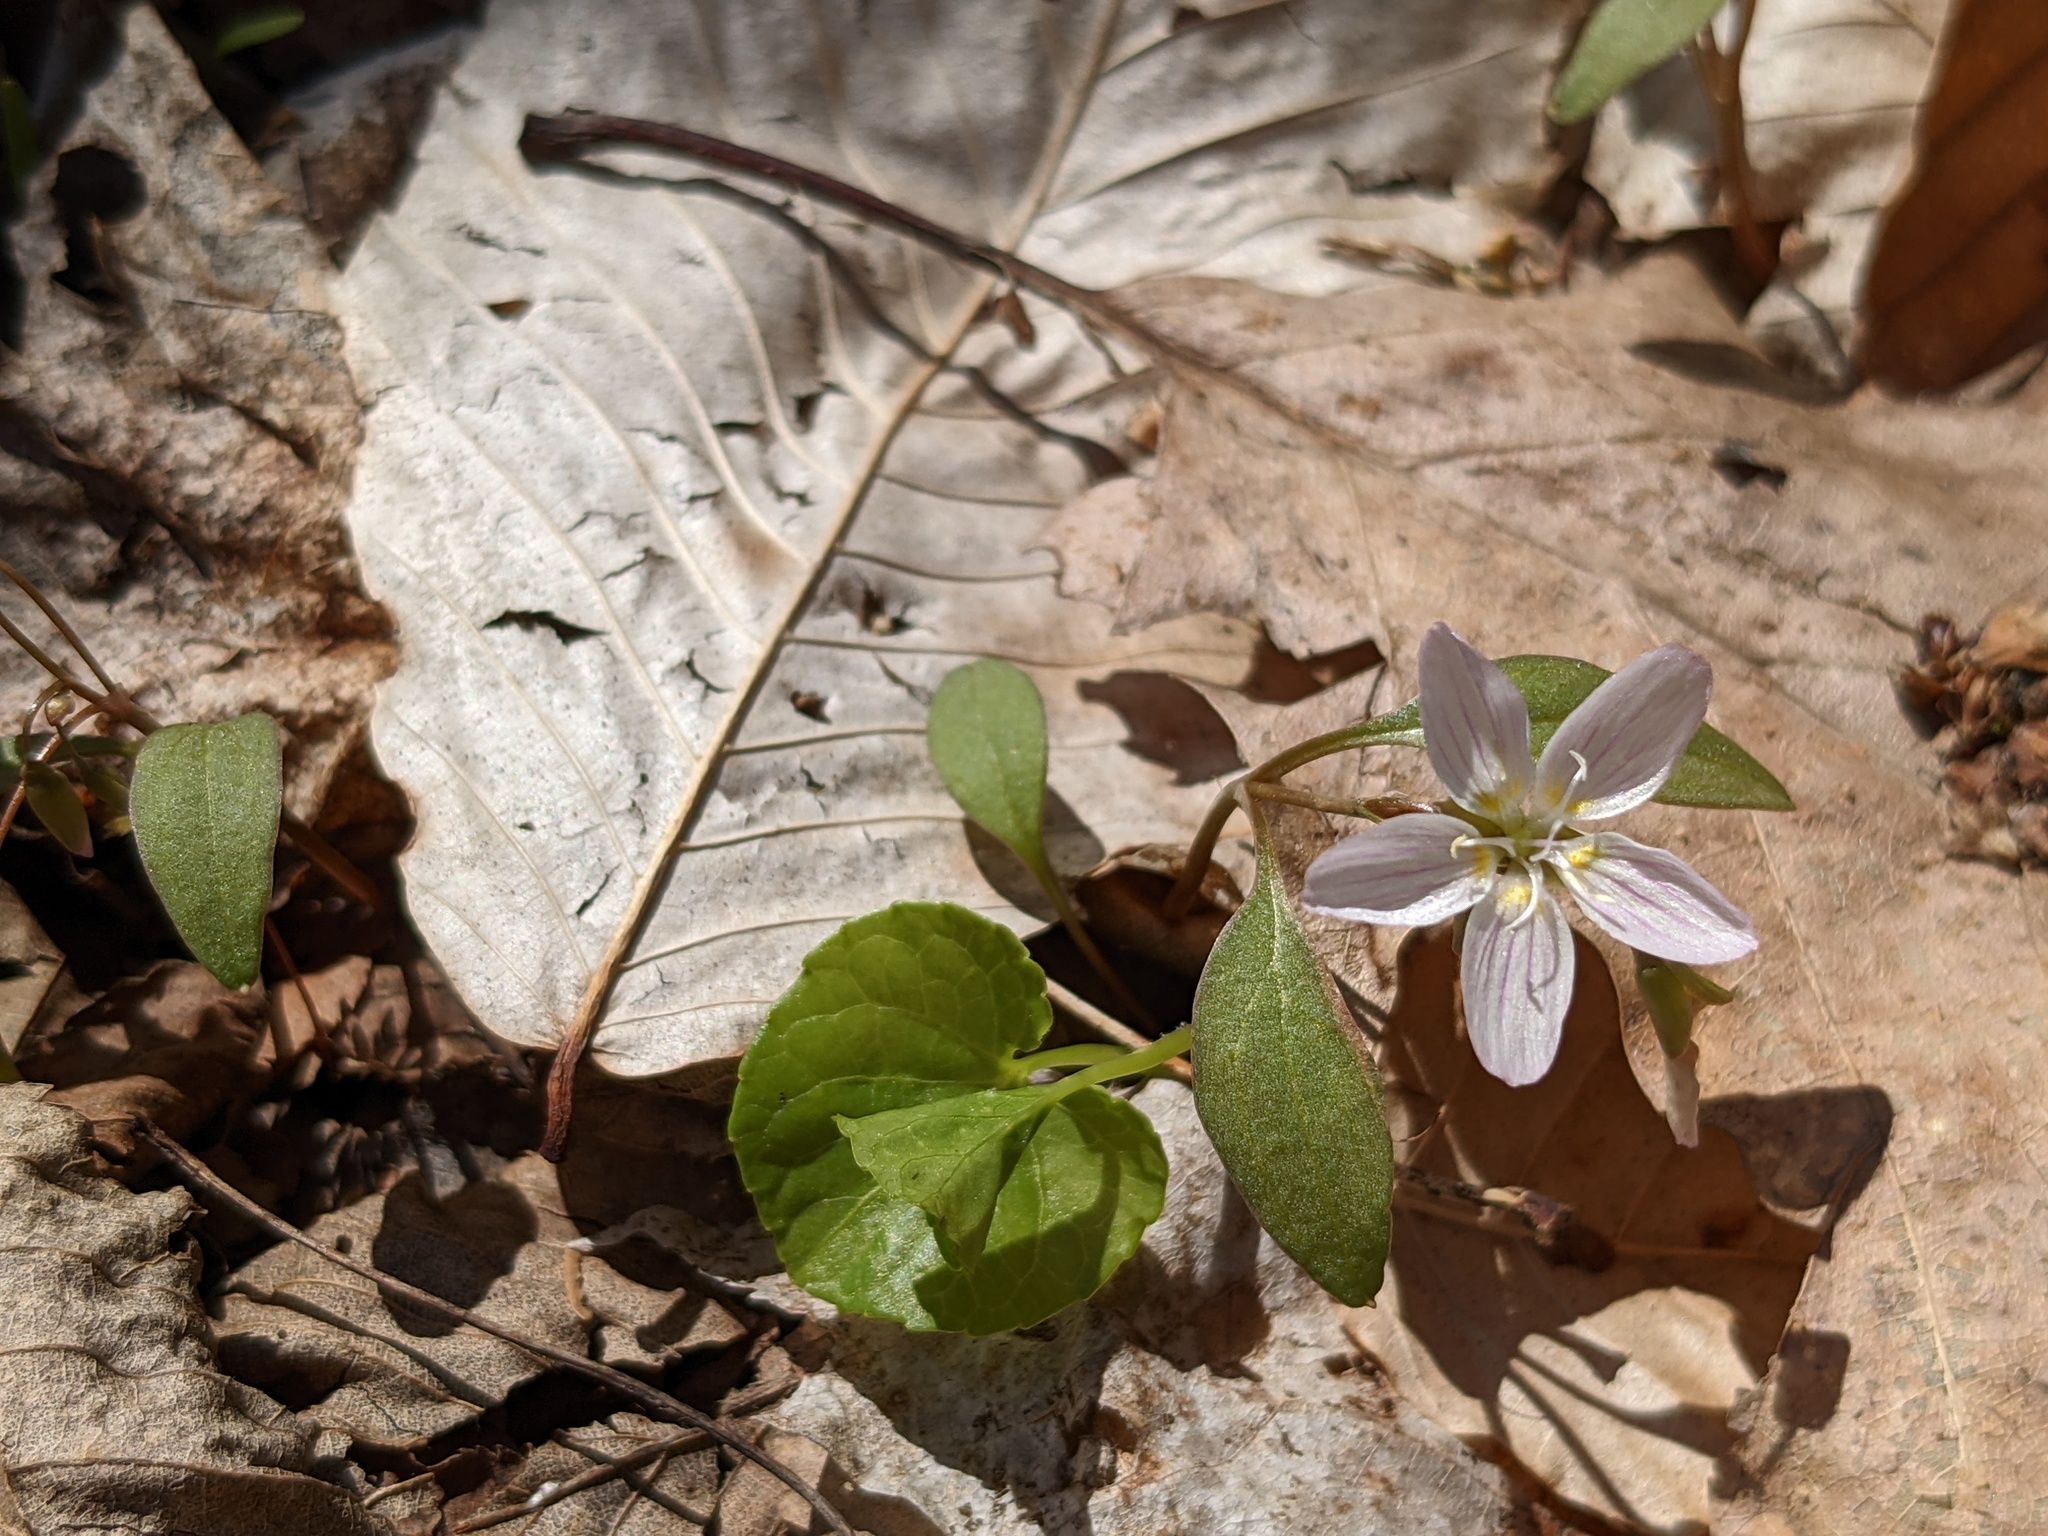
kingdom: Plantae
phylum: Tracheophyta
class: Magnoliopsida
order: Caryophyllales
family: Montiaceae
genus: Claytonia
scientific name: Claytonia caroliniana
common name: Carolina spring beauty
